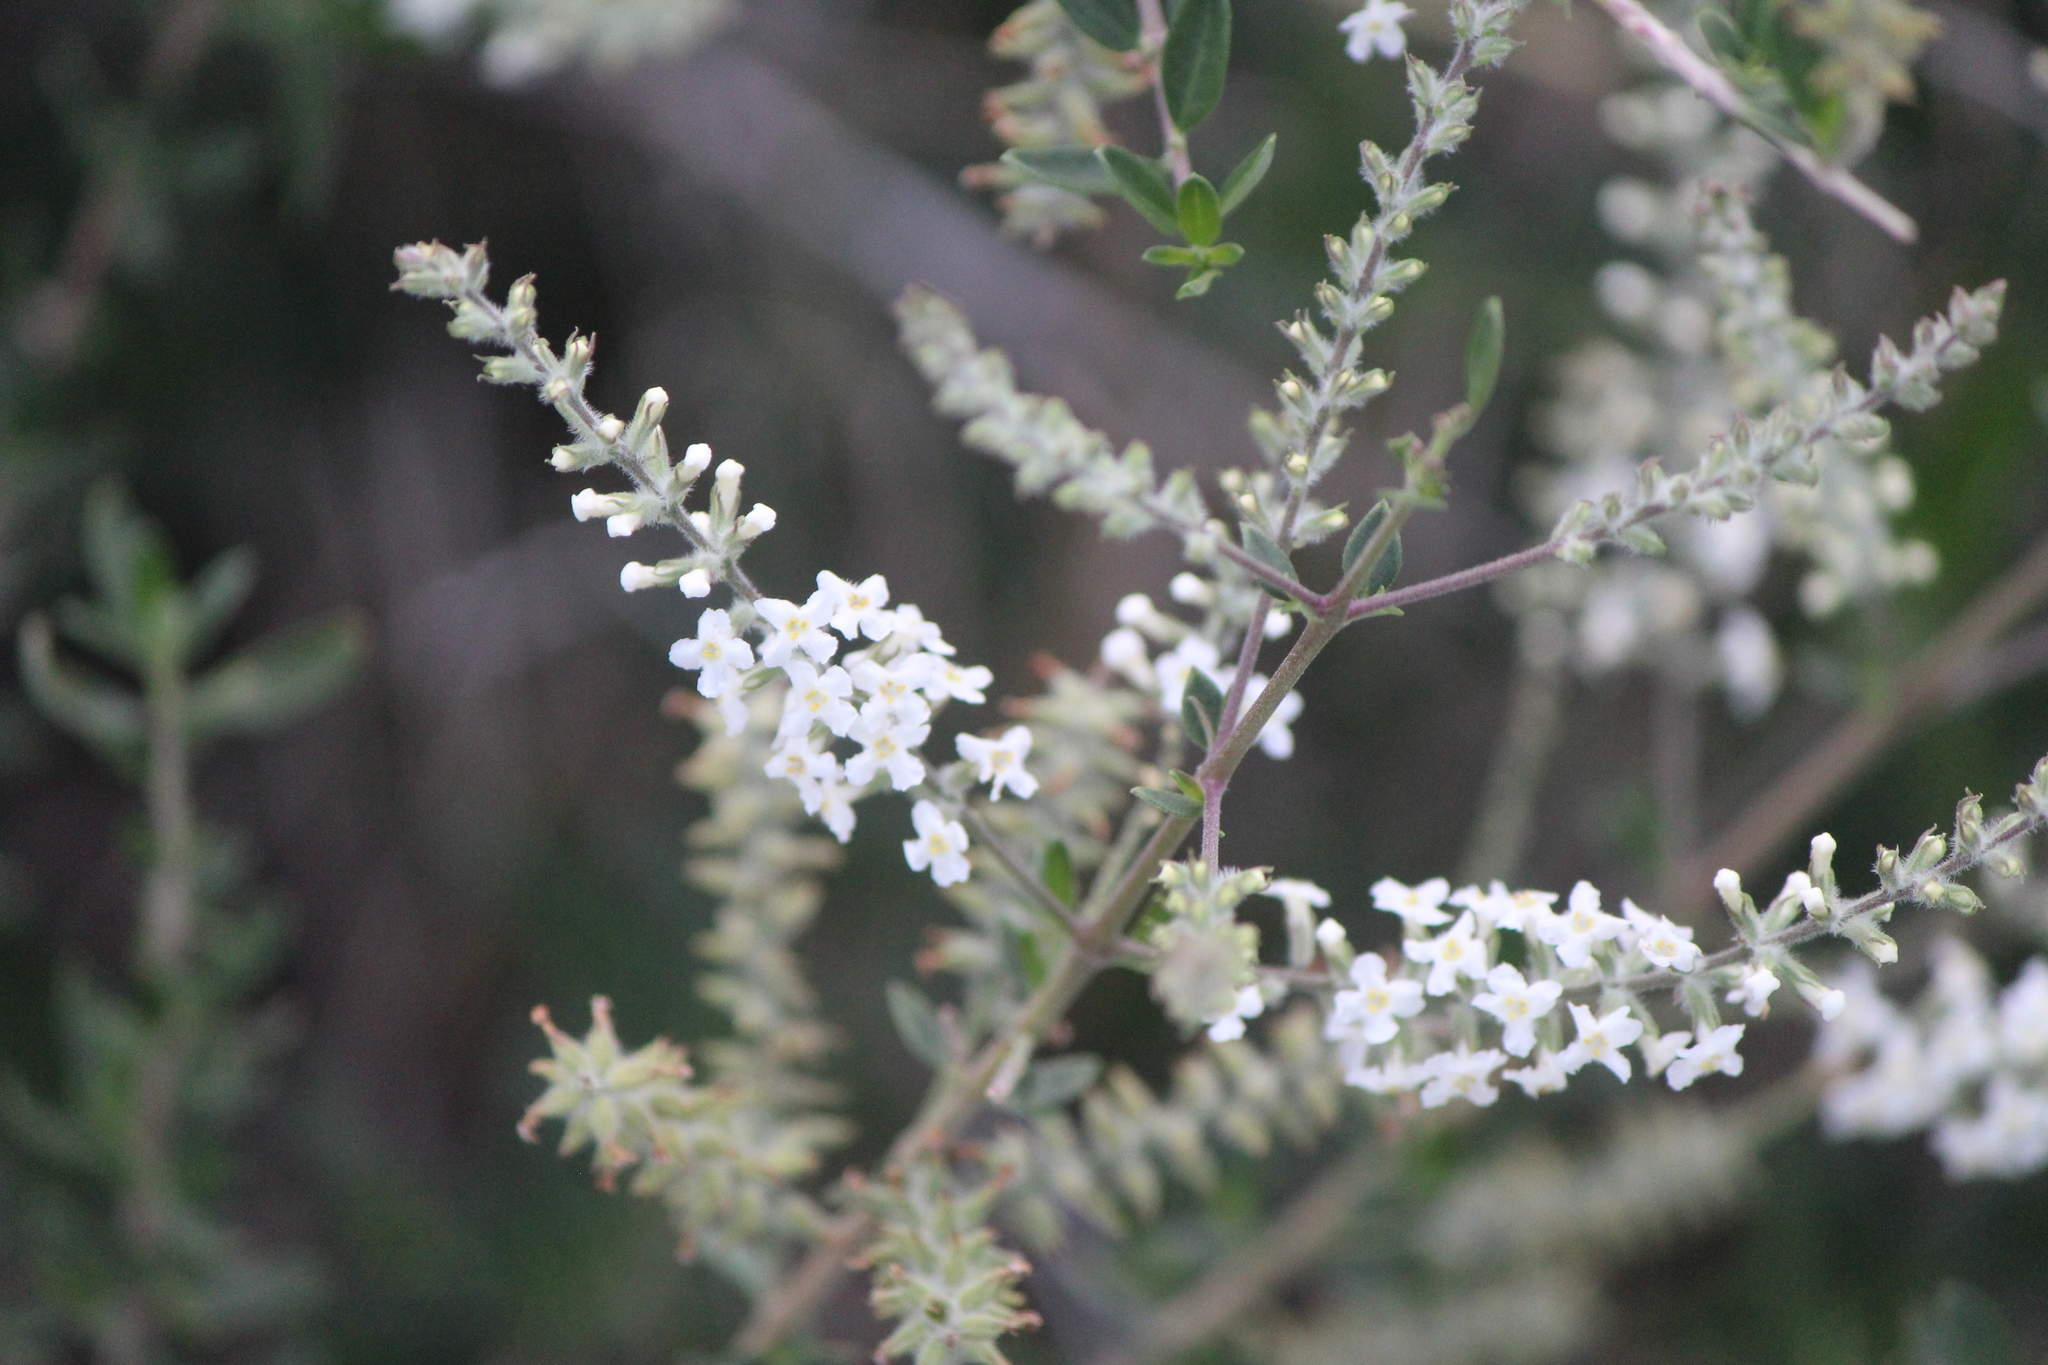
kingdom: Plantae
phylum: Tracheophyta
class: Magnoliopsida
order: Lamiales
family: Verbenaceae
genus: Aloysia
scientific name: Aloysia gratissima
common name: Common bee-brush
